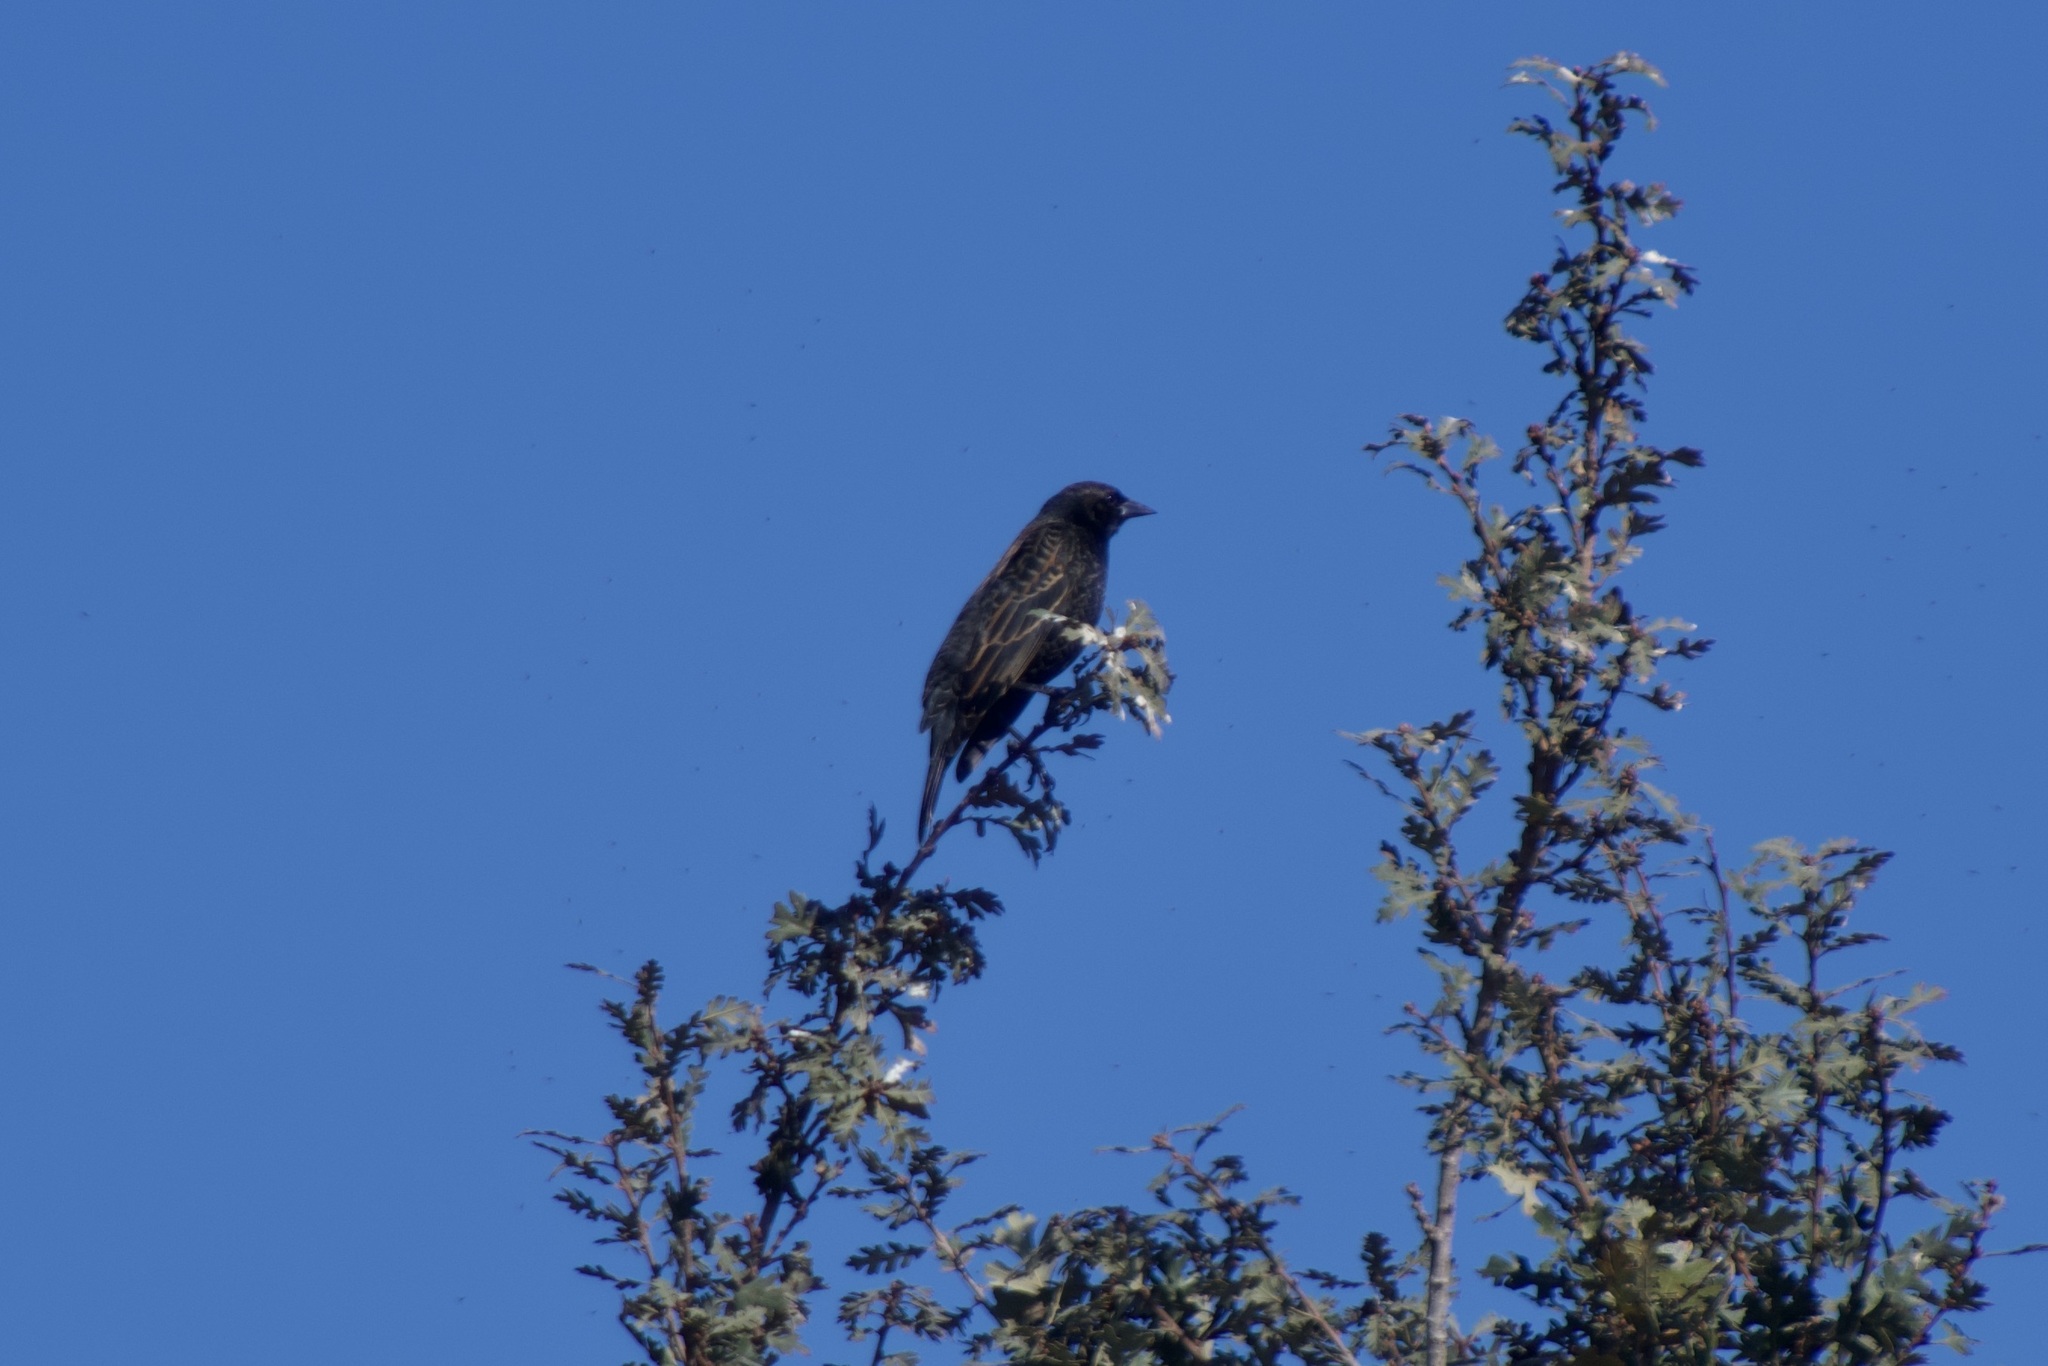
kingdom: Animalia
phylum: Chordata
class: Aves
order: Passeriformes
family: Icteridae
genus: Agelaius
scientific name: Agelaius phoeniceus
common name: Red-winged blackbird
